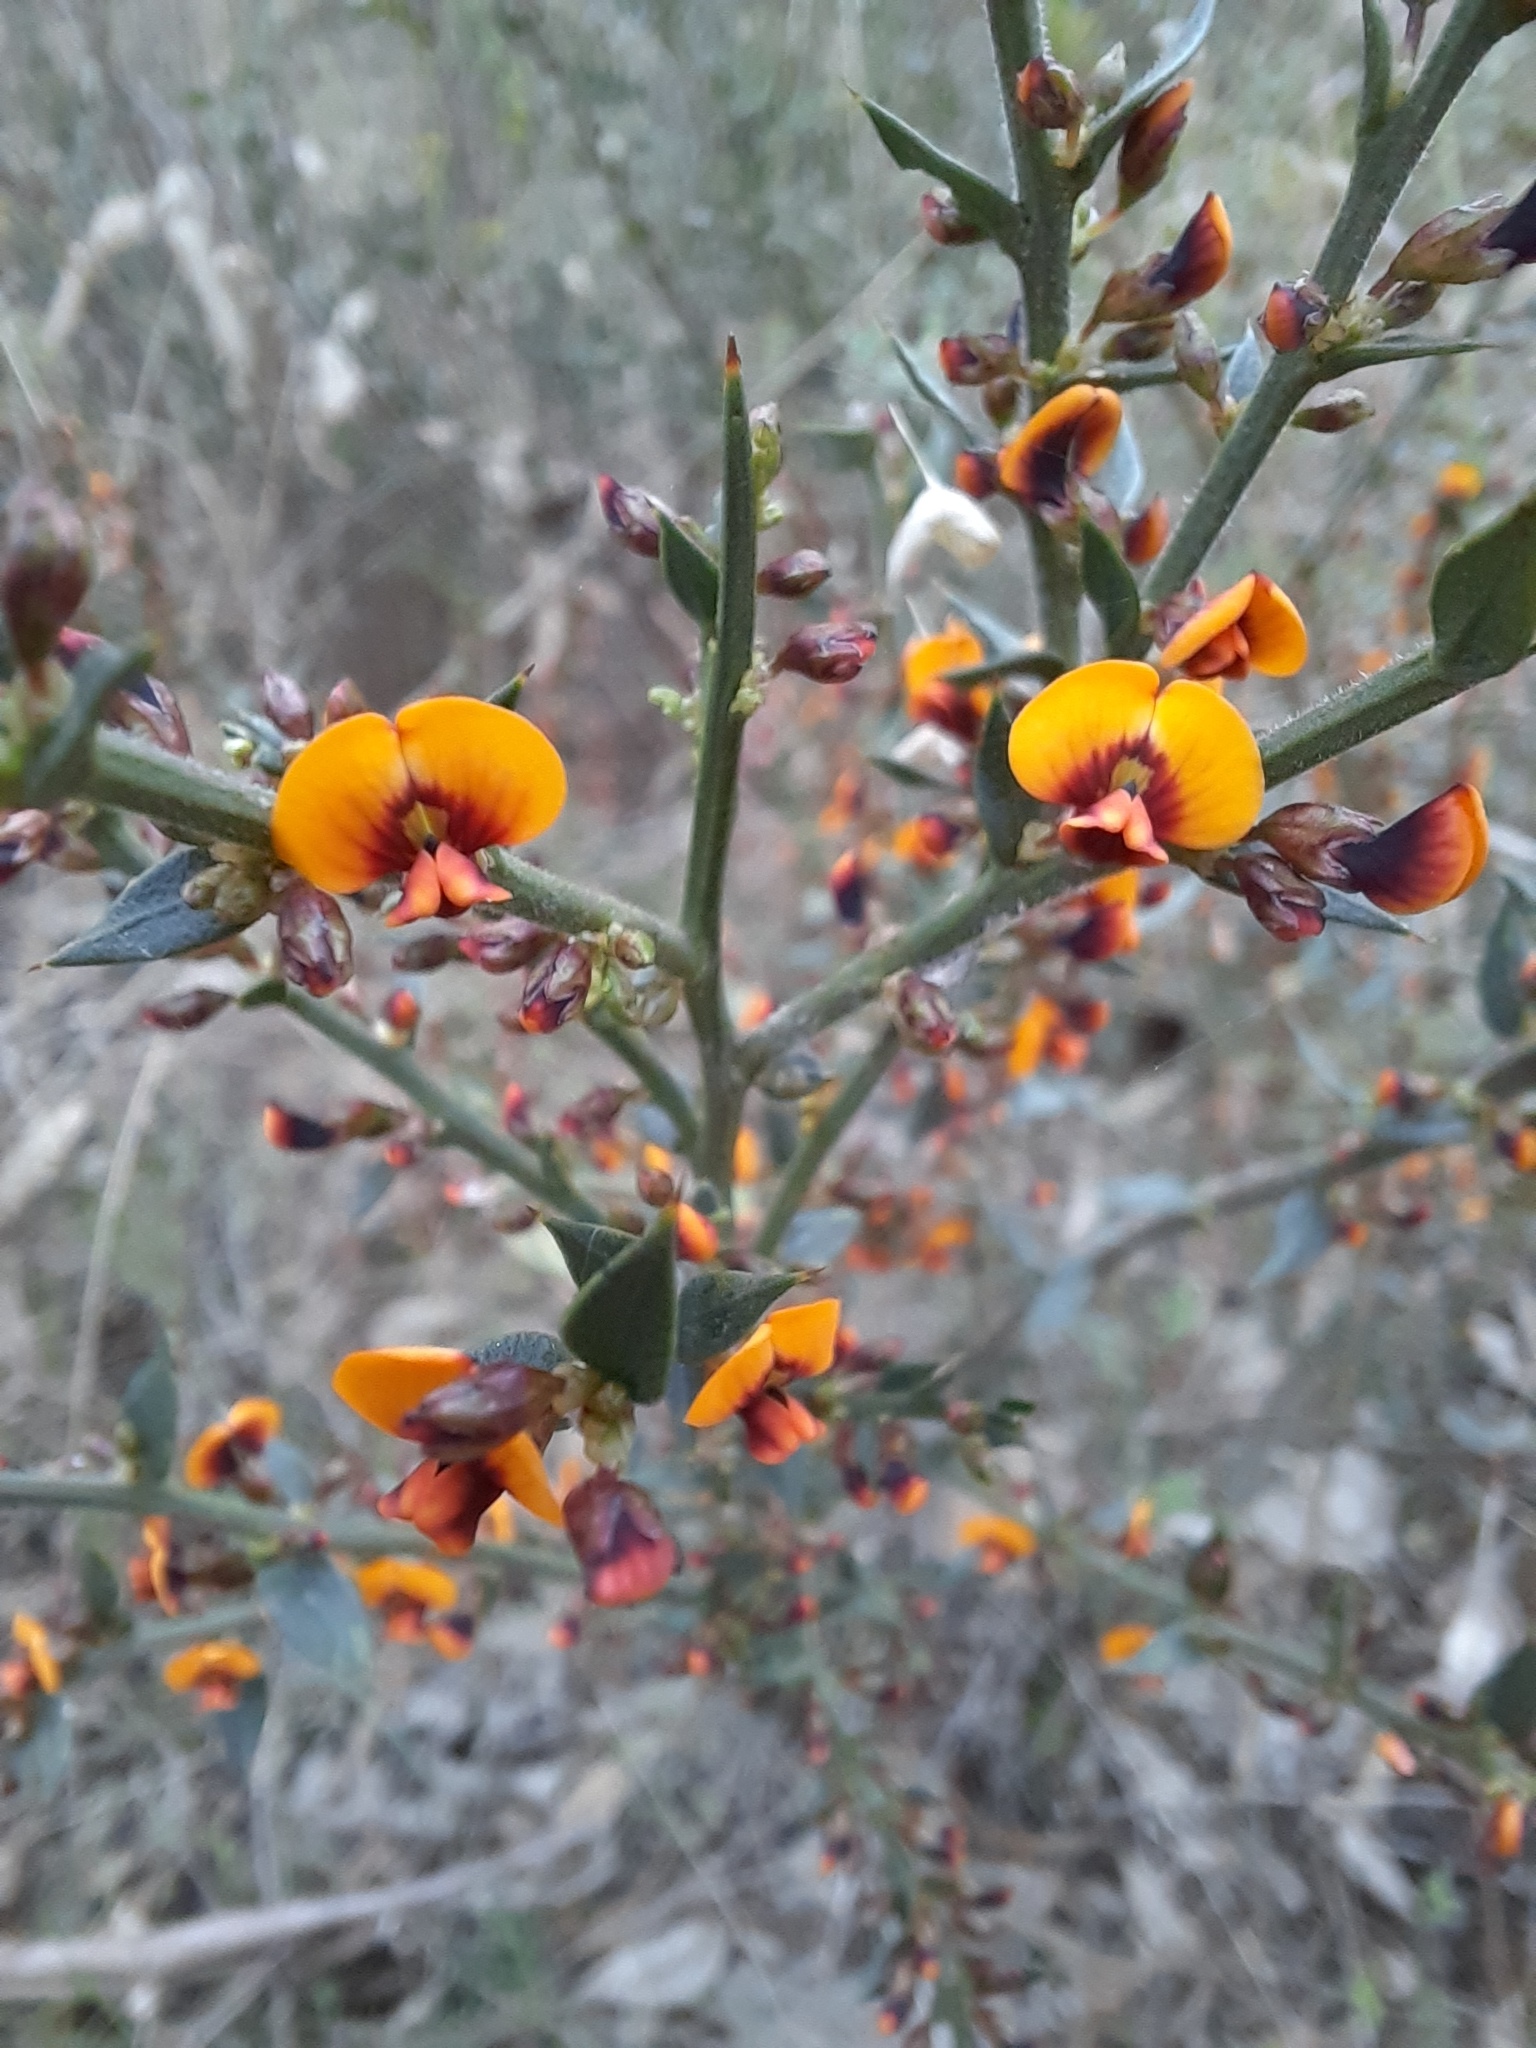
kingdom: Plantae
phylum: Tracheophyta
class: Magnoliopsida
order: Fabales
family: Fabaceae
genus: Daviesia
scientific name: Daviesia ulicifolia
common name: Gorse bitter-pea
